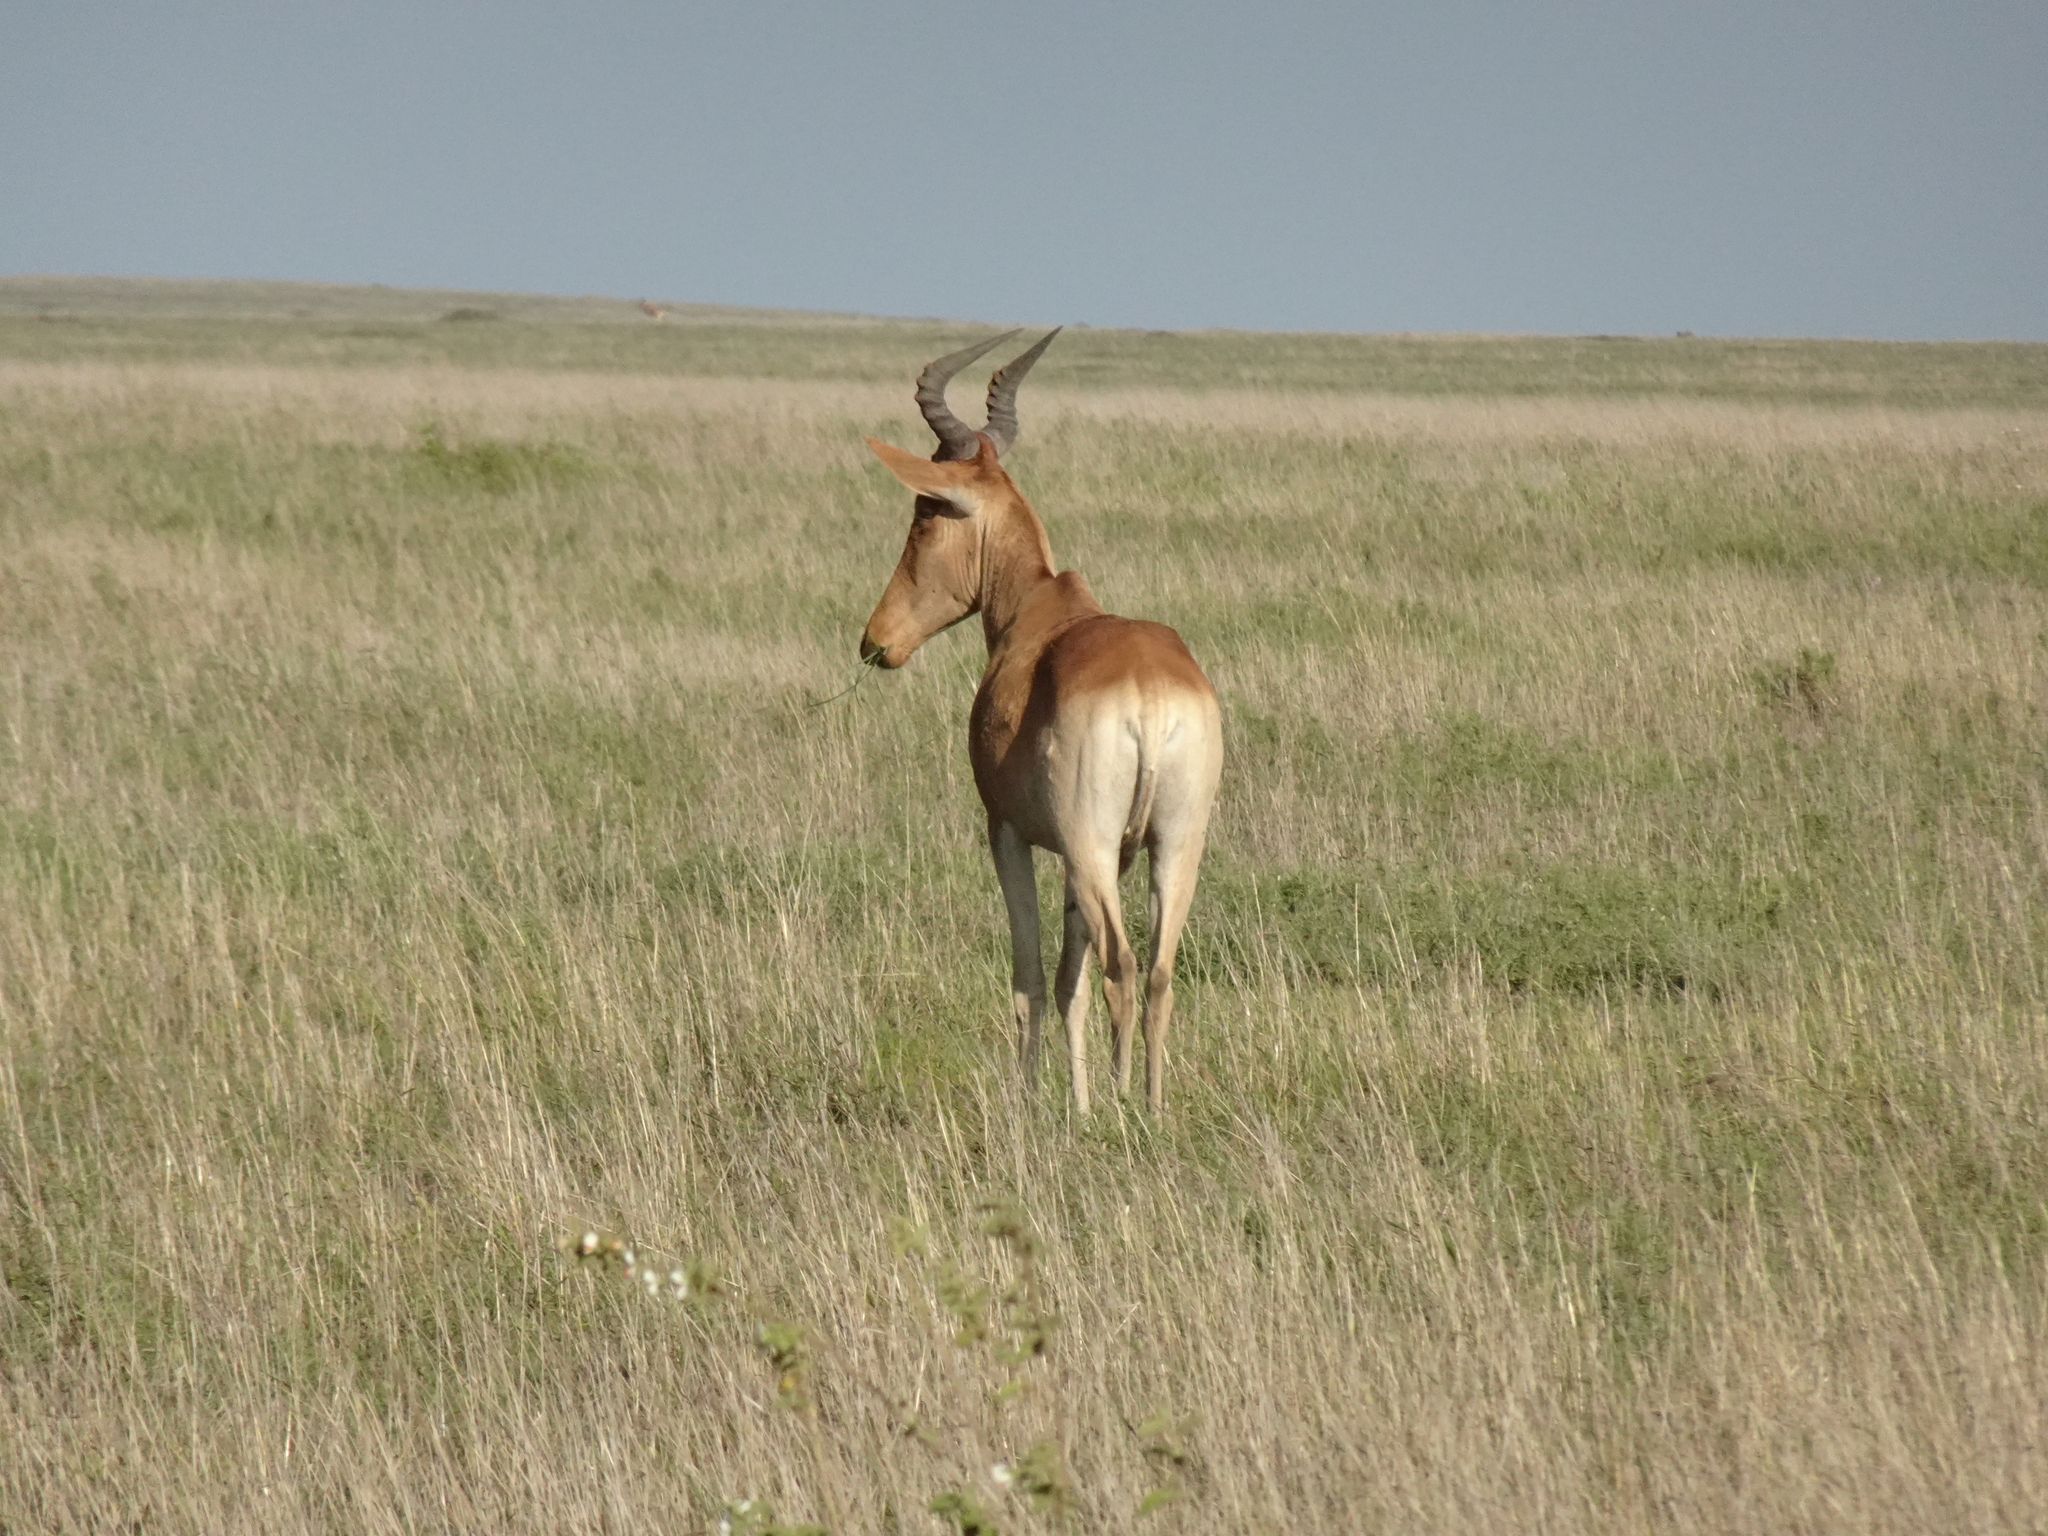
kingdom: Animalia
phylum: Chordata
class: Mammalia
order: Artiodactyla
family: Bovidae
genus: Alcelaphus
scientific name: Alcelaphus buselaphus
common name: Hartebeest
